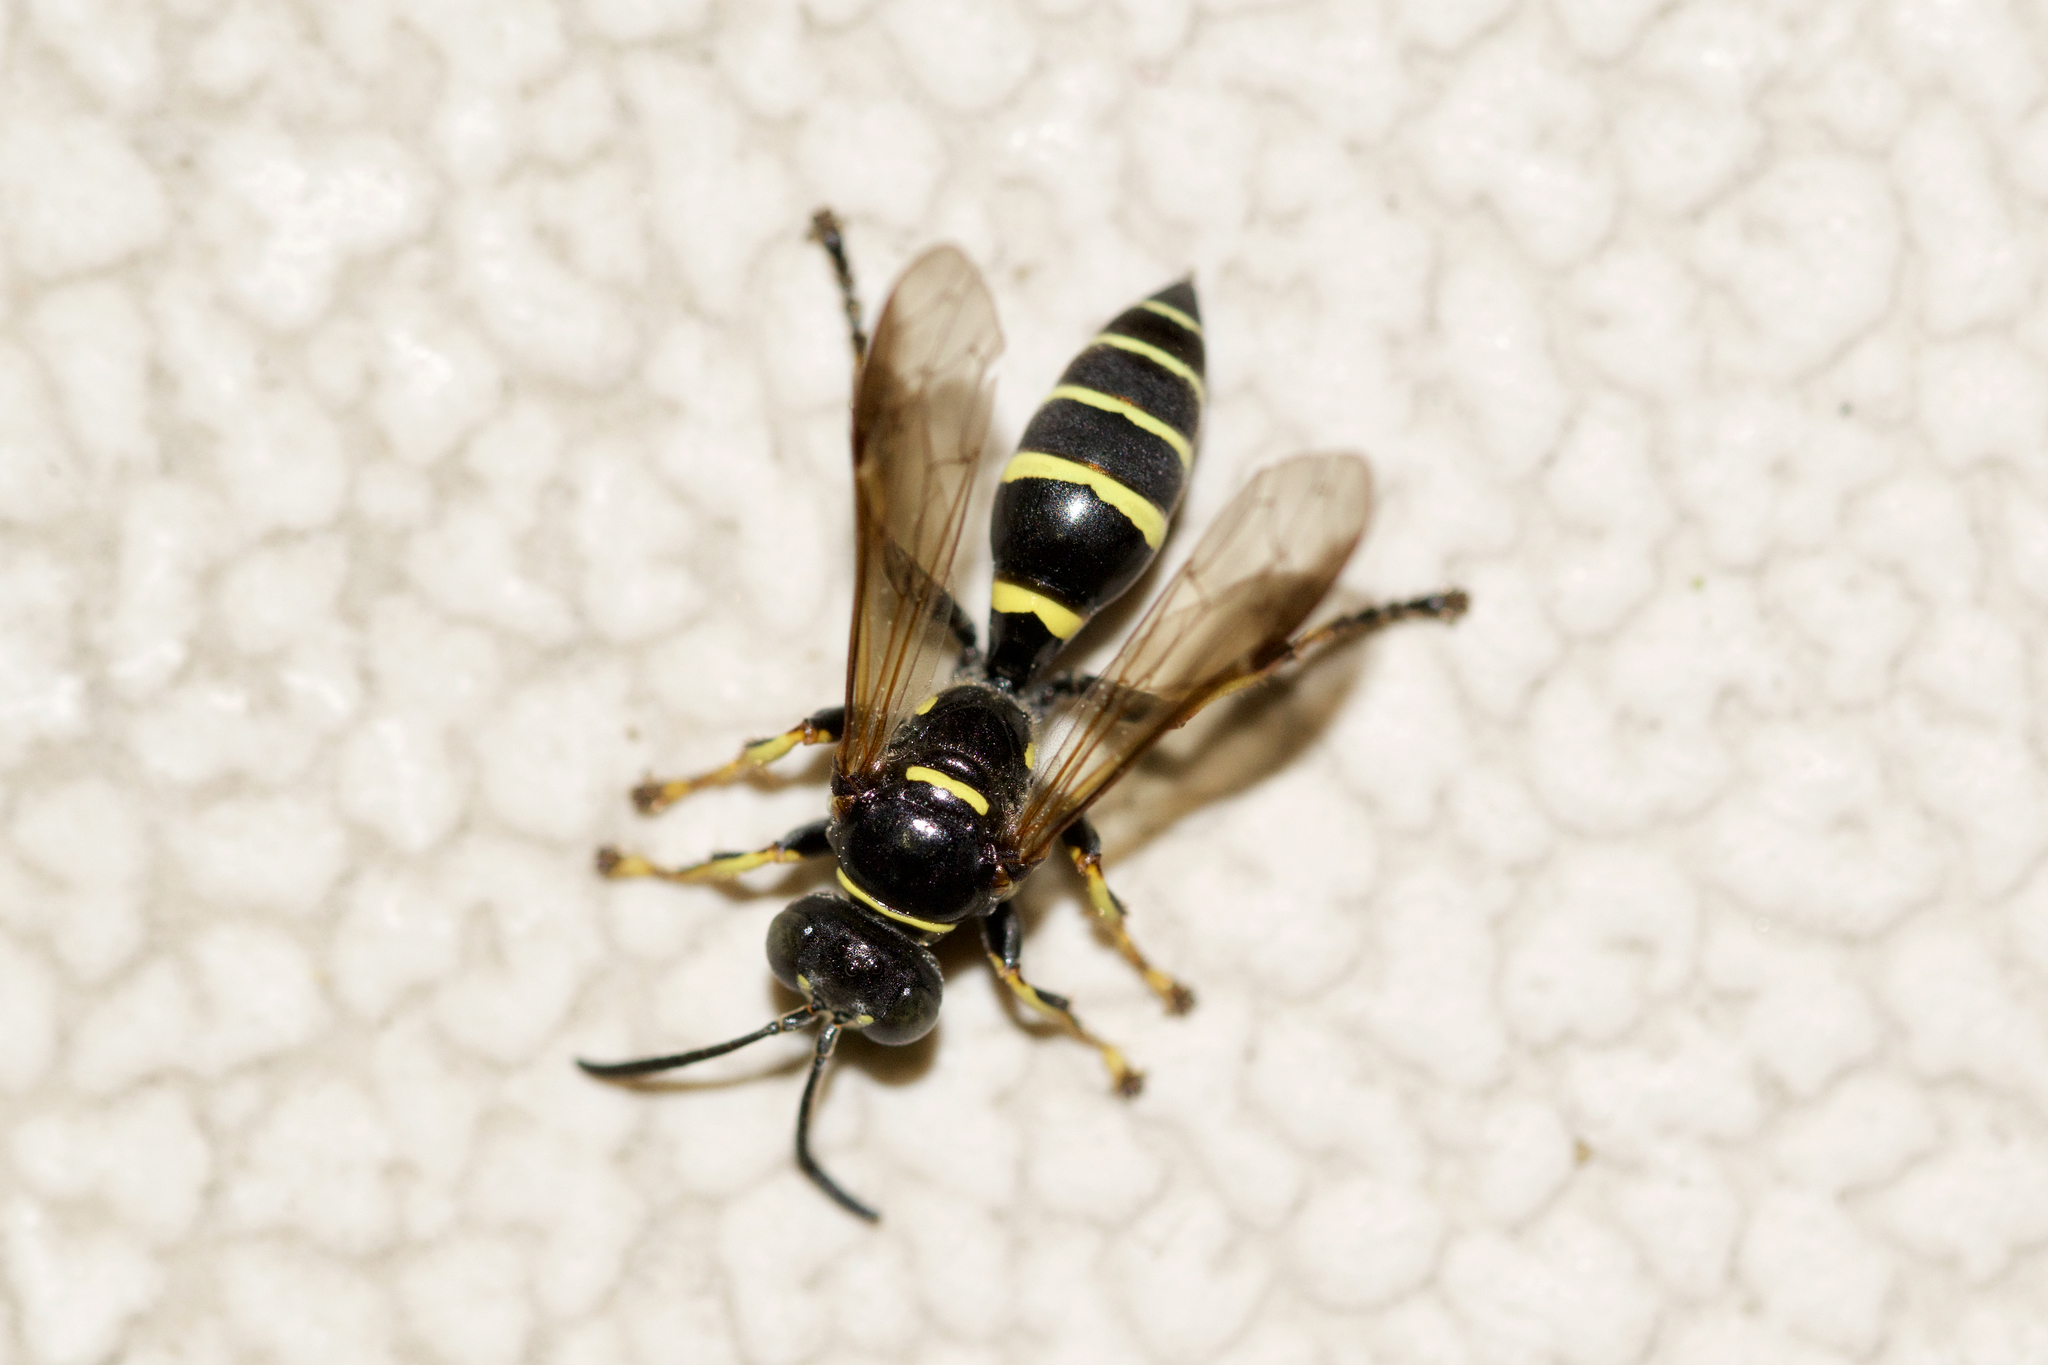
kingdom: Animalia
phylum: Arthropoda
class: Insecta
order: Hymenoptera
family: Crabronidae
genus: Gorytes
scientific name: Gorytes
